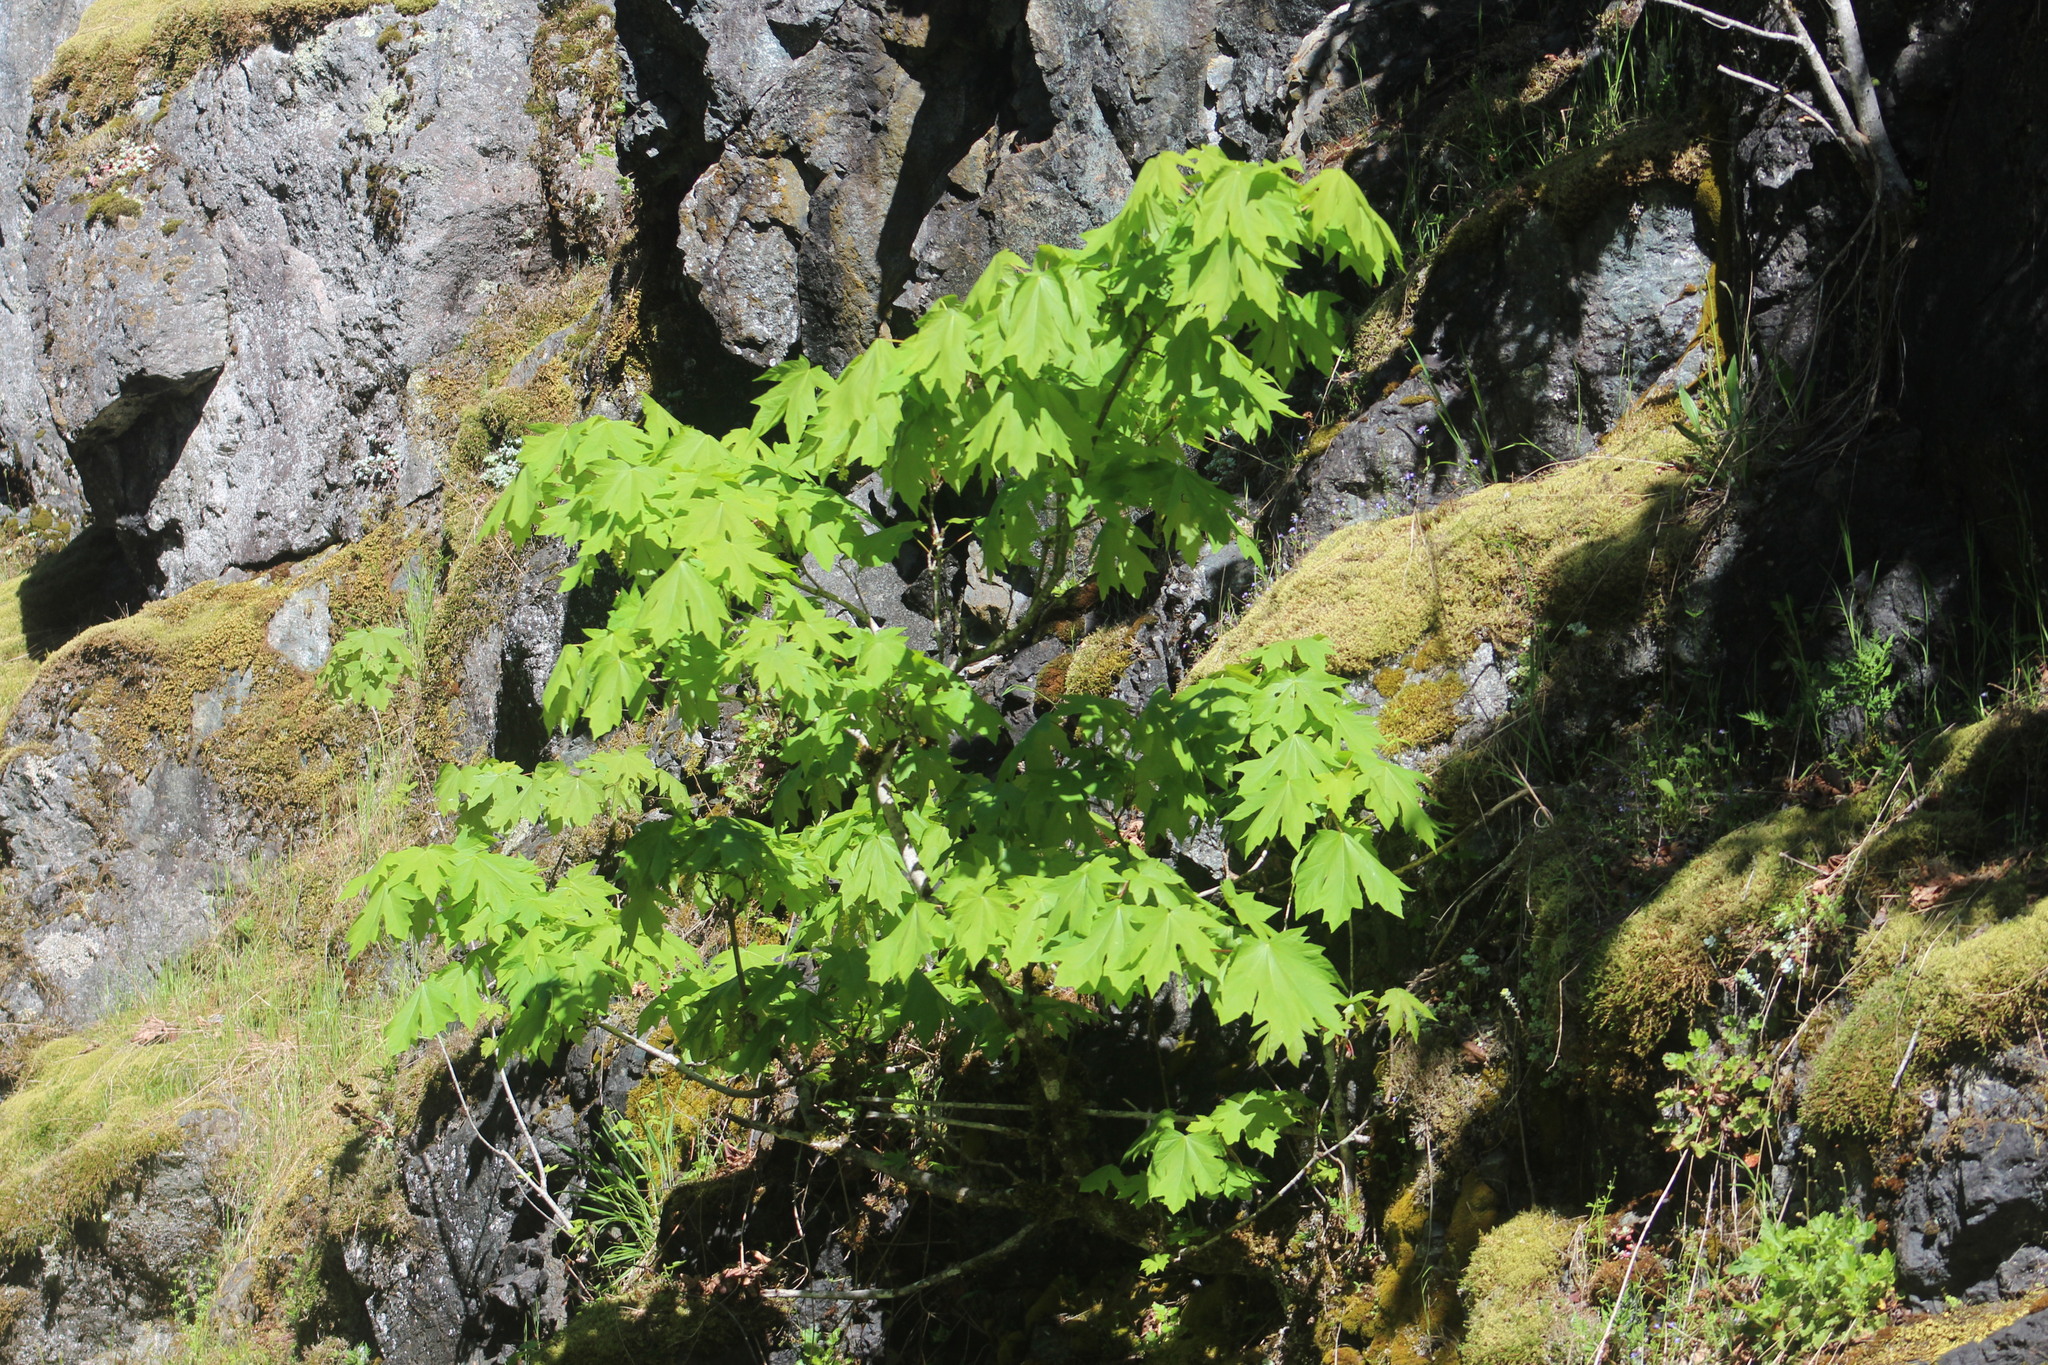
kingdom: Plantae
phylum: Tracheophyta
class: Magnoliopsida
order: Sapindales
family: Sapindaceae
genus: Acer
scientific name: Acer macrophyllum
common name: Oregon maple
